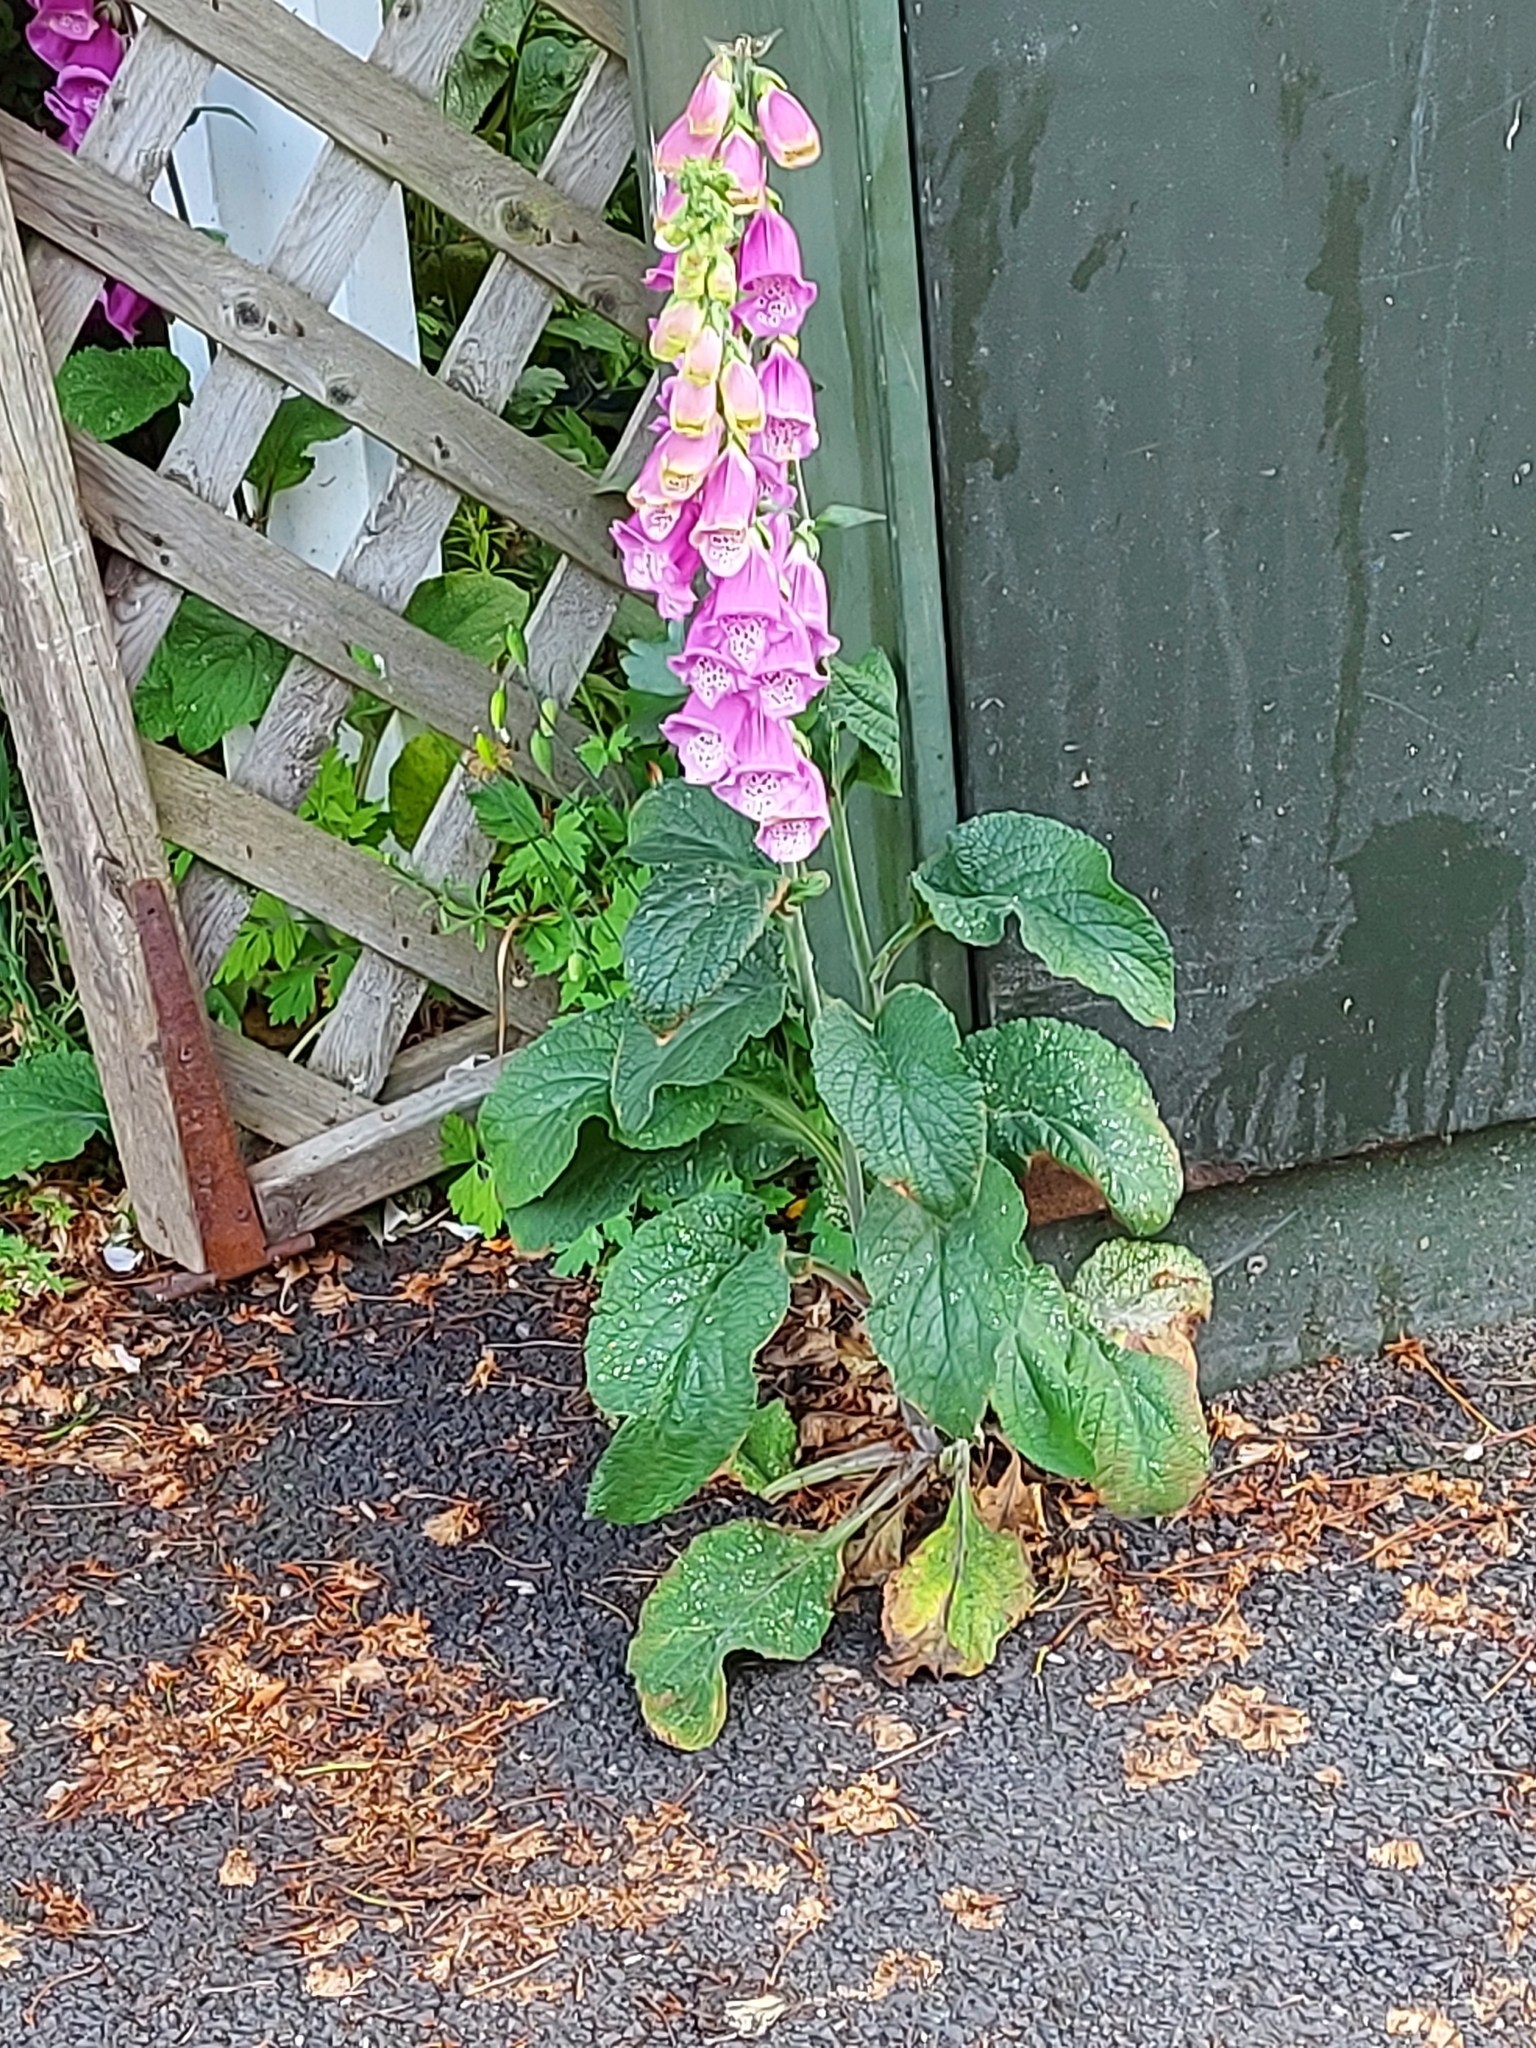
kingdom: Plantae
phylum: Tracheophyta
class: Magnoliopsida
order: Lamiales
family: Plantaginaceae
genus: Digitalis
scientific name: Digitalis purpurea
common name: Foxglove
